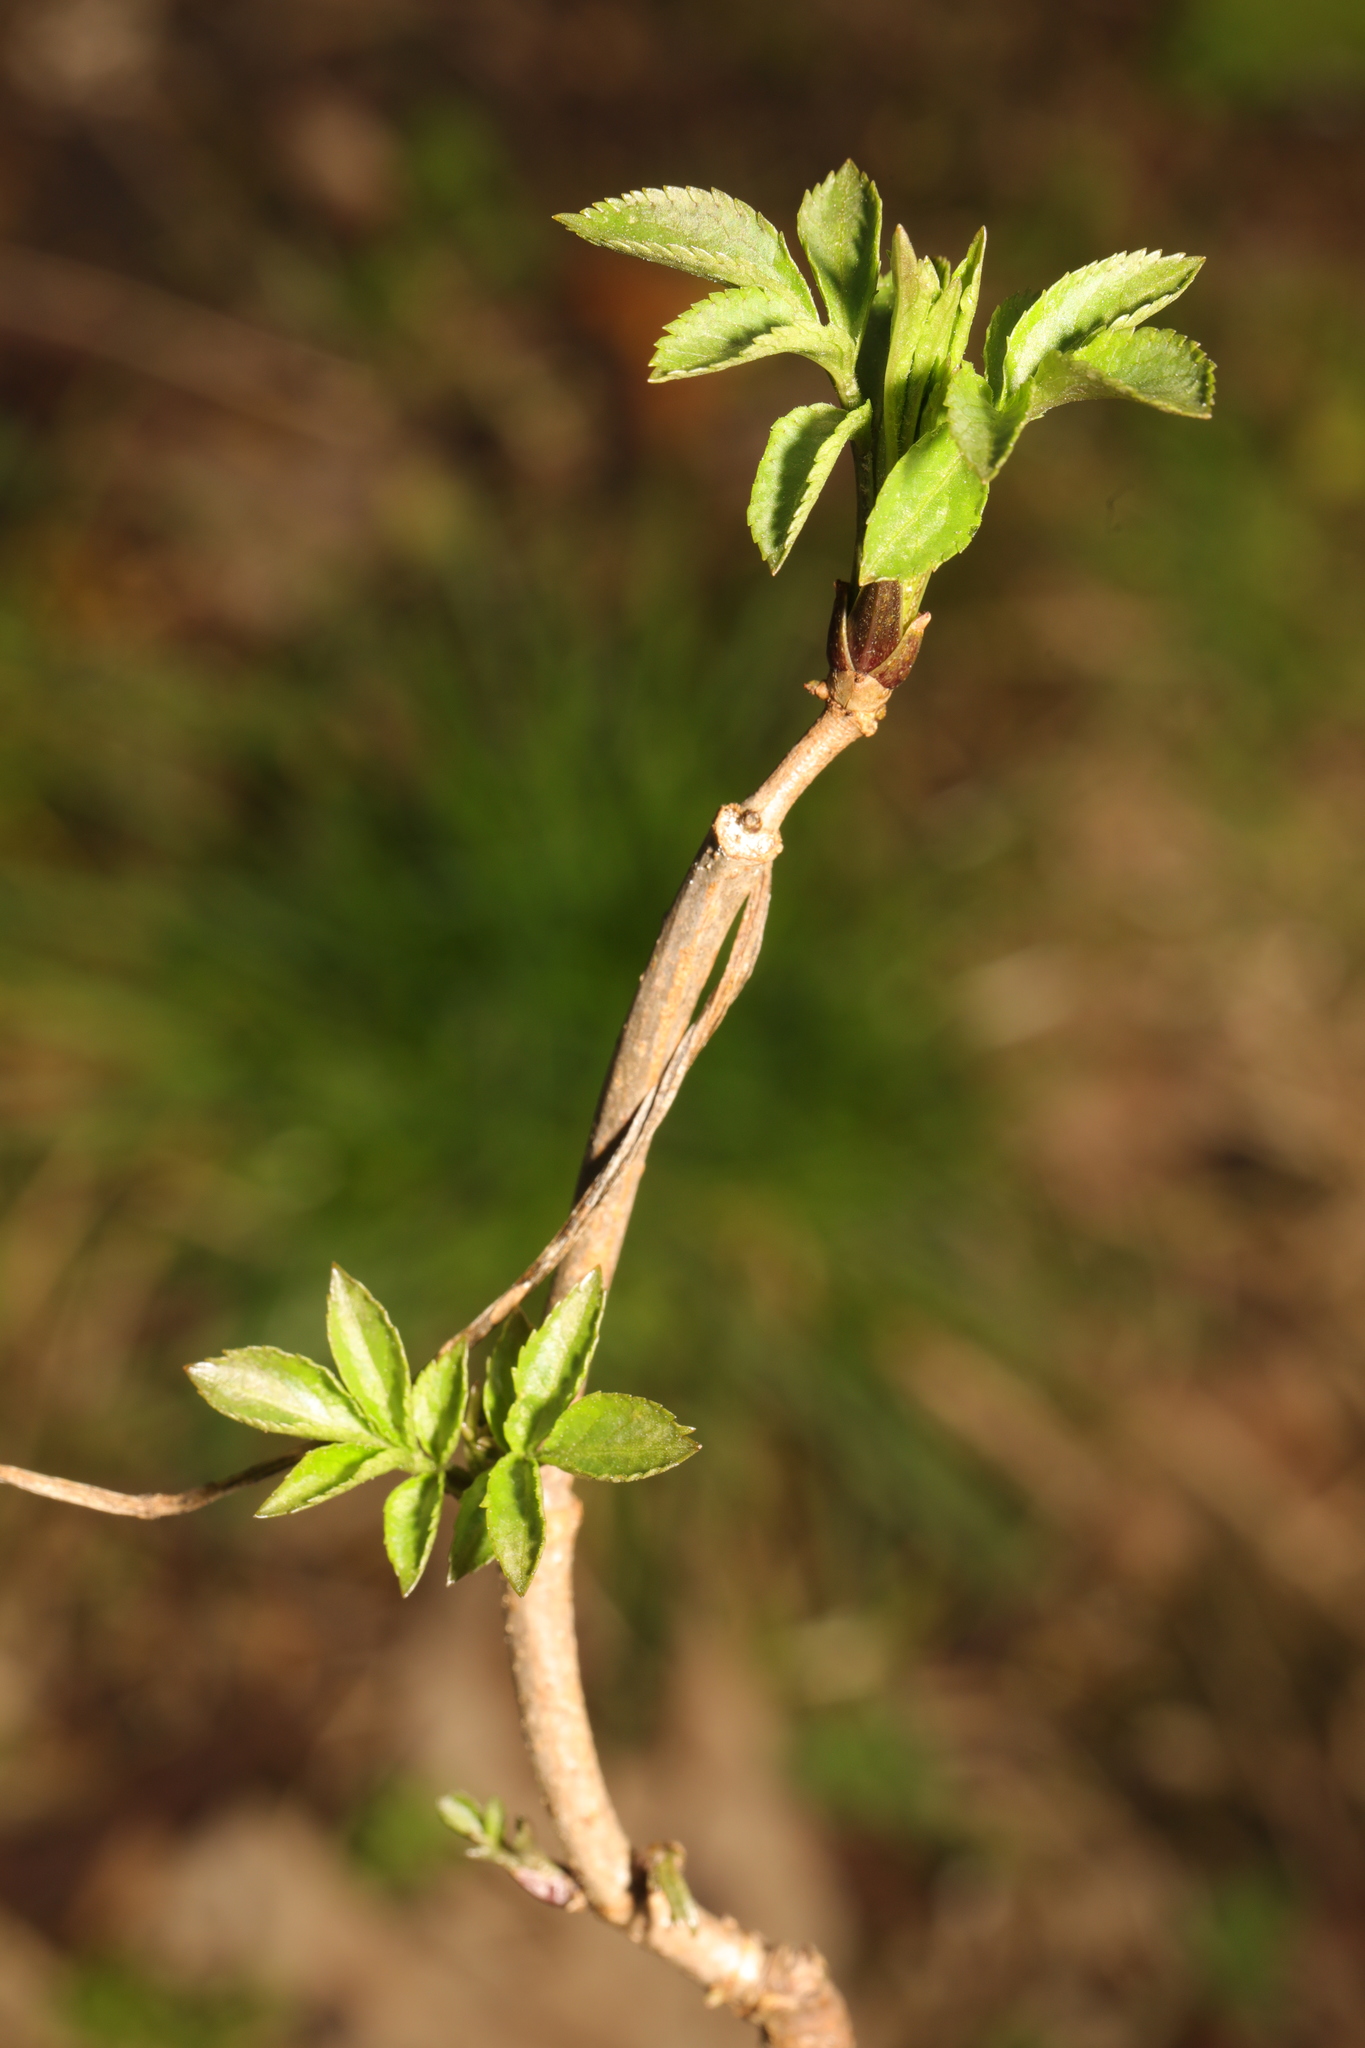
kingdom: Plantae
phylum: Tracheophyta
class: Magnoliopsida
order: Dipsacales
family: Viburnaceae
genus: Sambucus
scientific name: Sambucus nigra
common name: Elder
